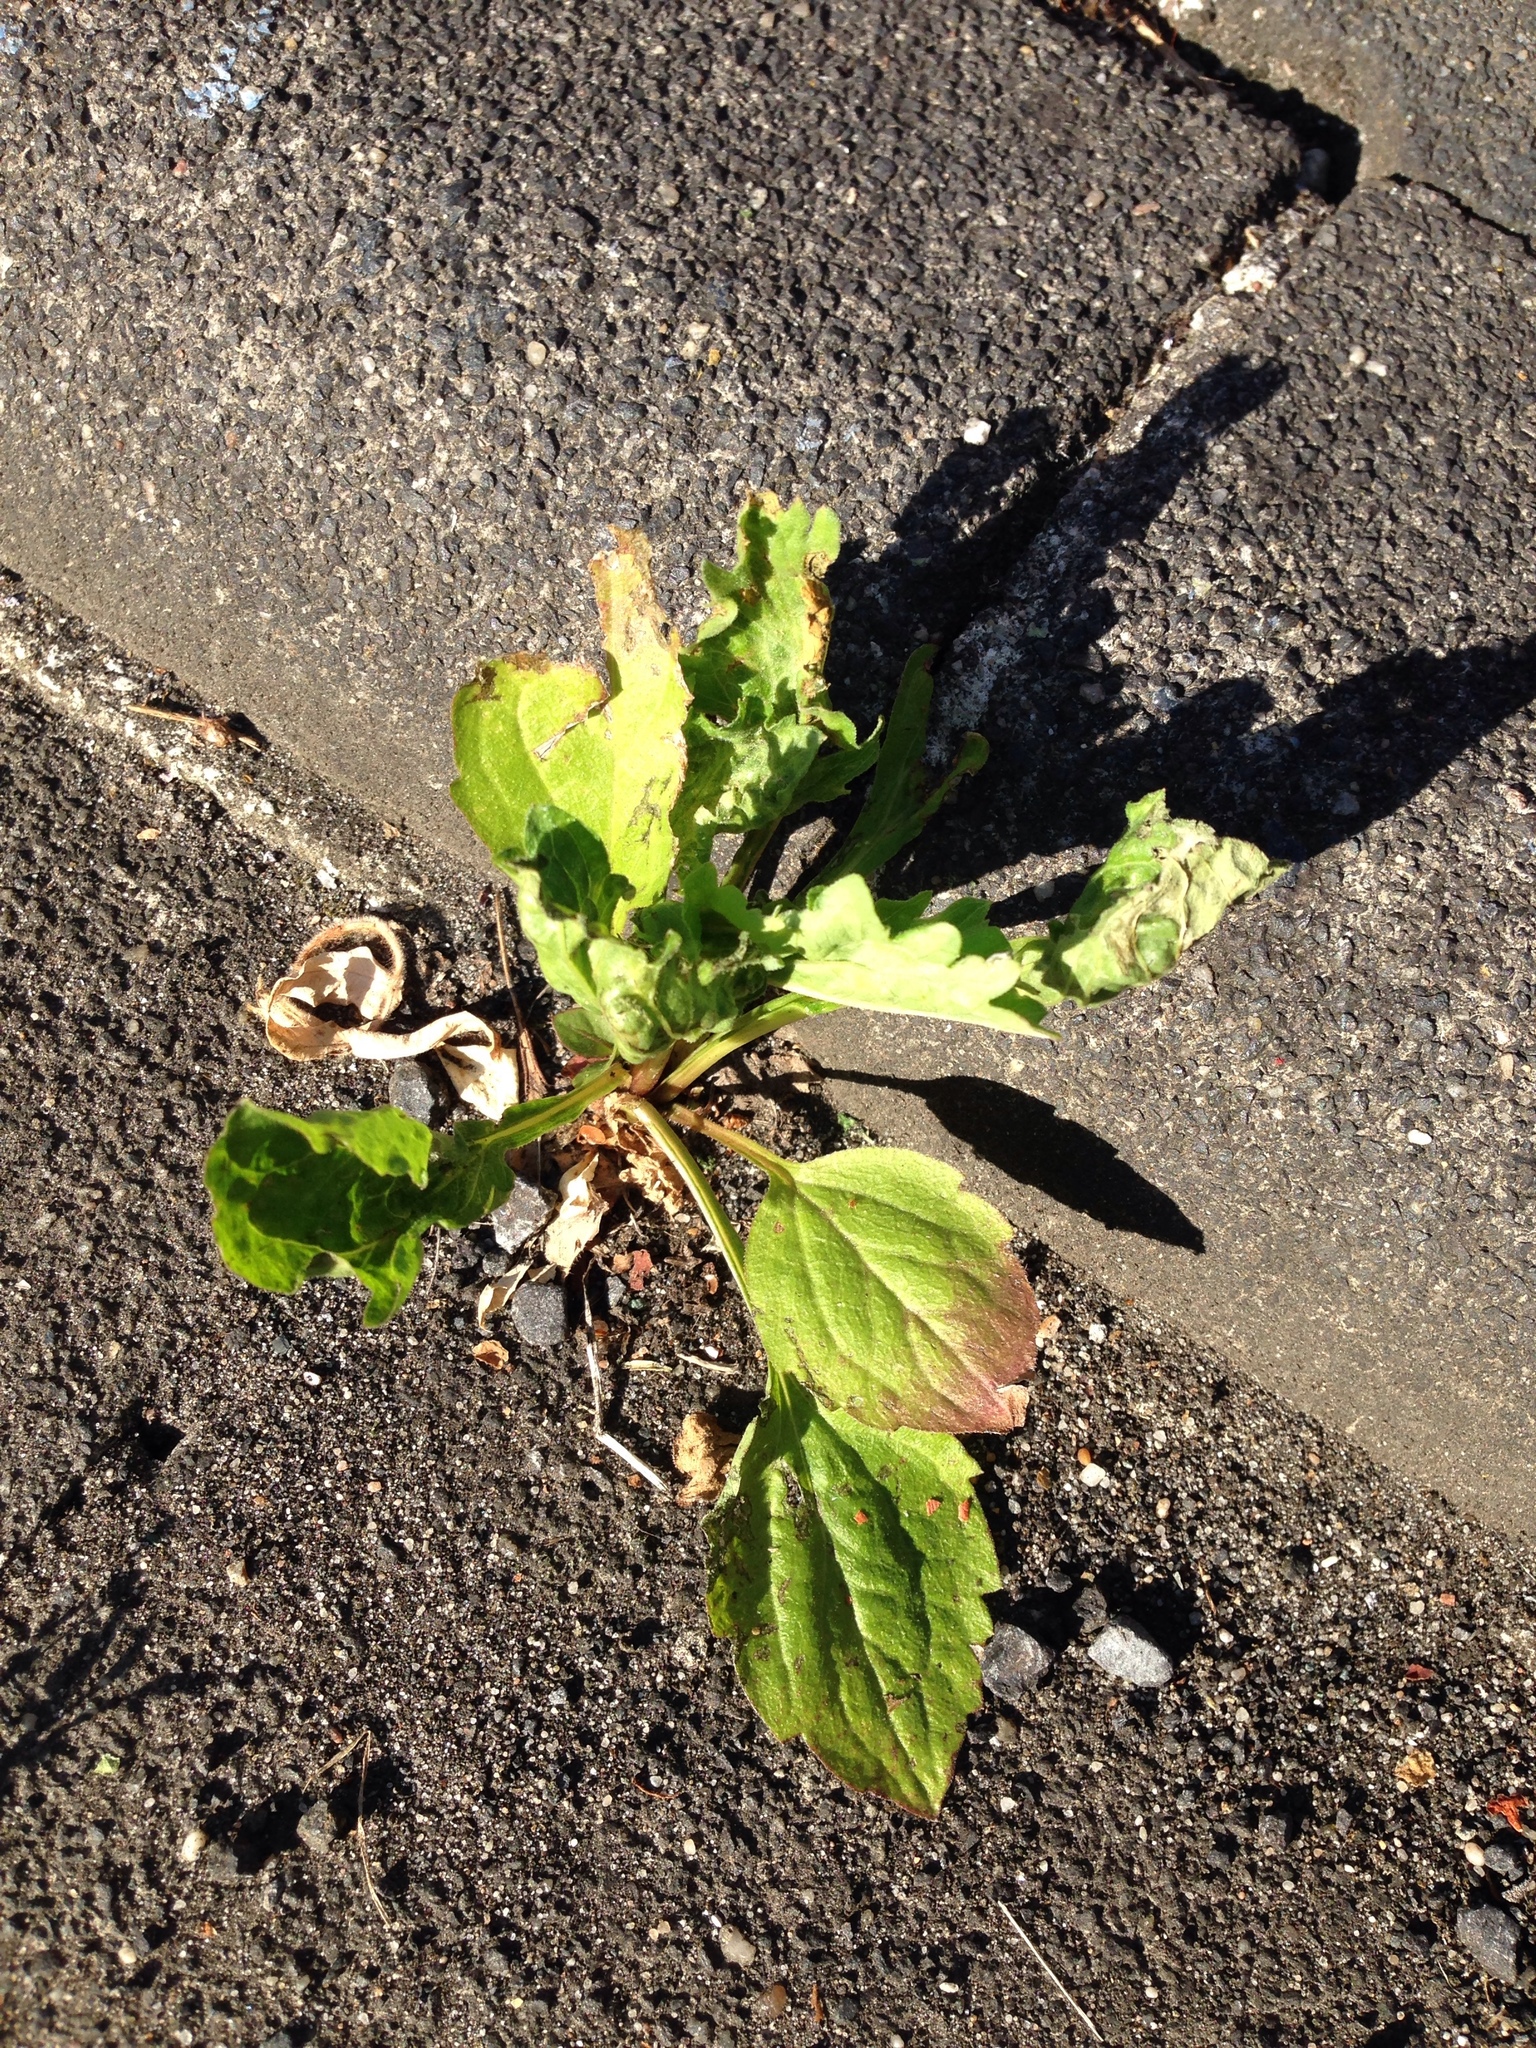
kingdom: Plantae
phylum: Tracheophyta
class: Magnoliopsida
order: Asterales
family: Asteraceae
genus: Erigeron
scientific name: Erigeron annuus
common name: Tall fleabane
